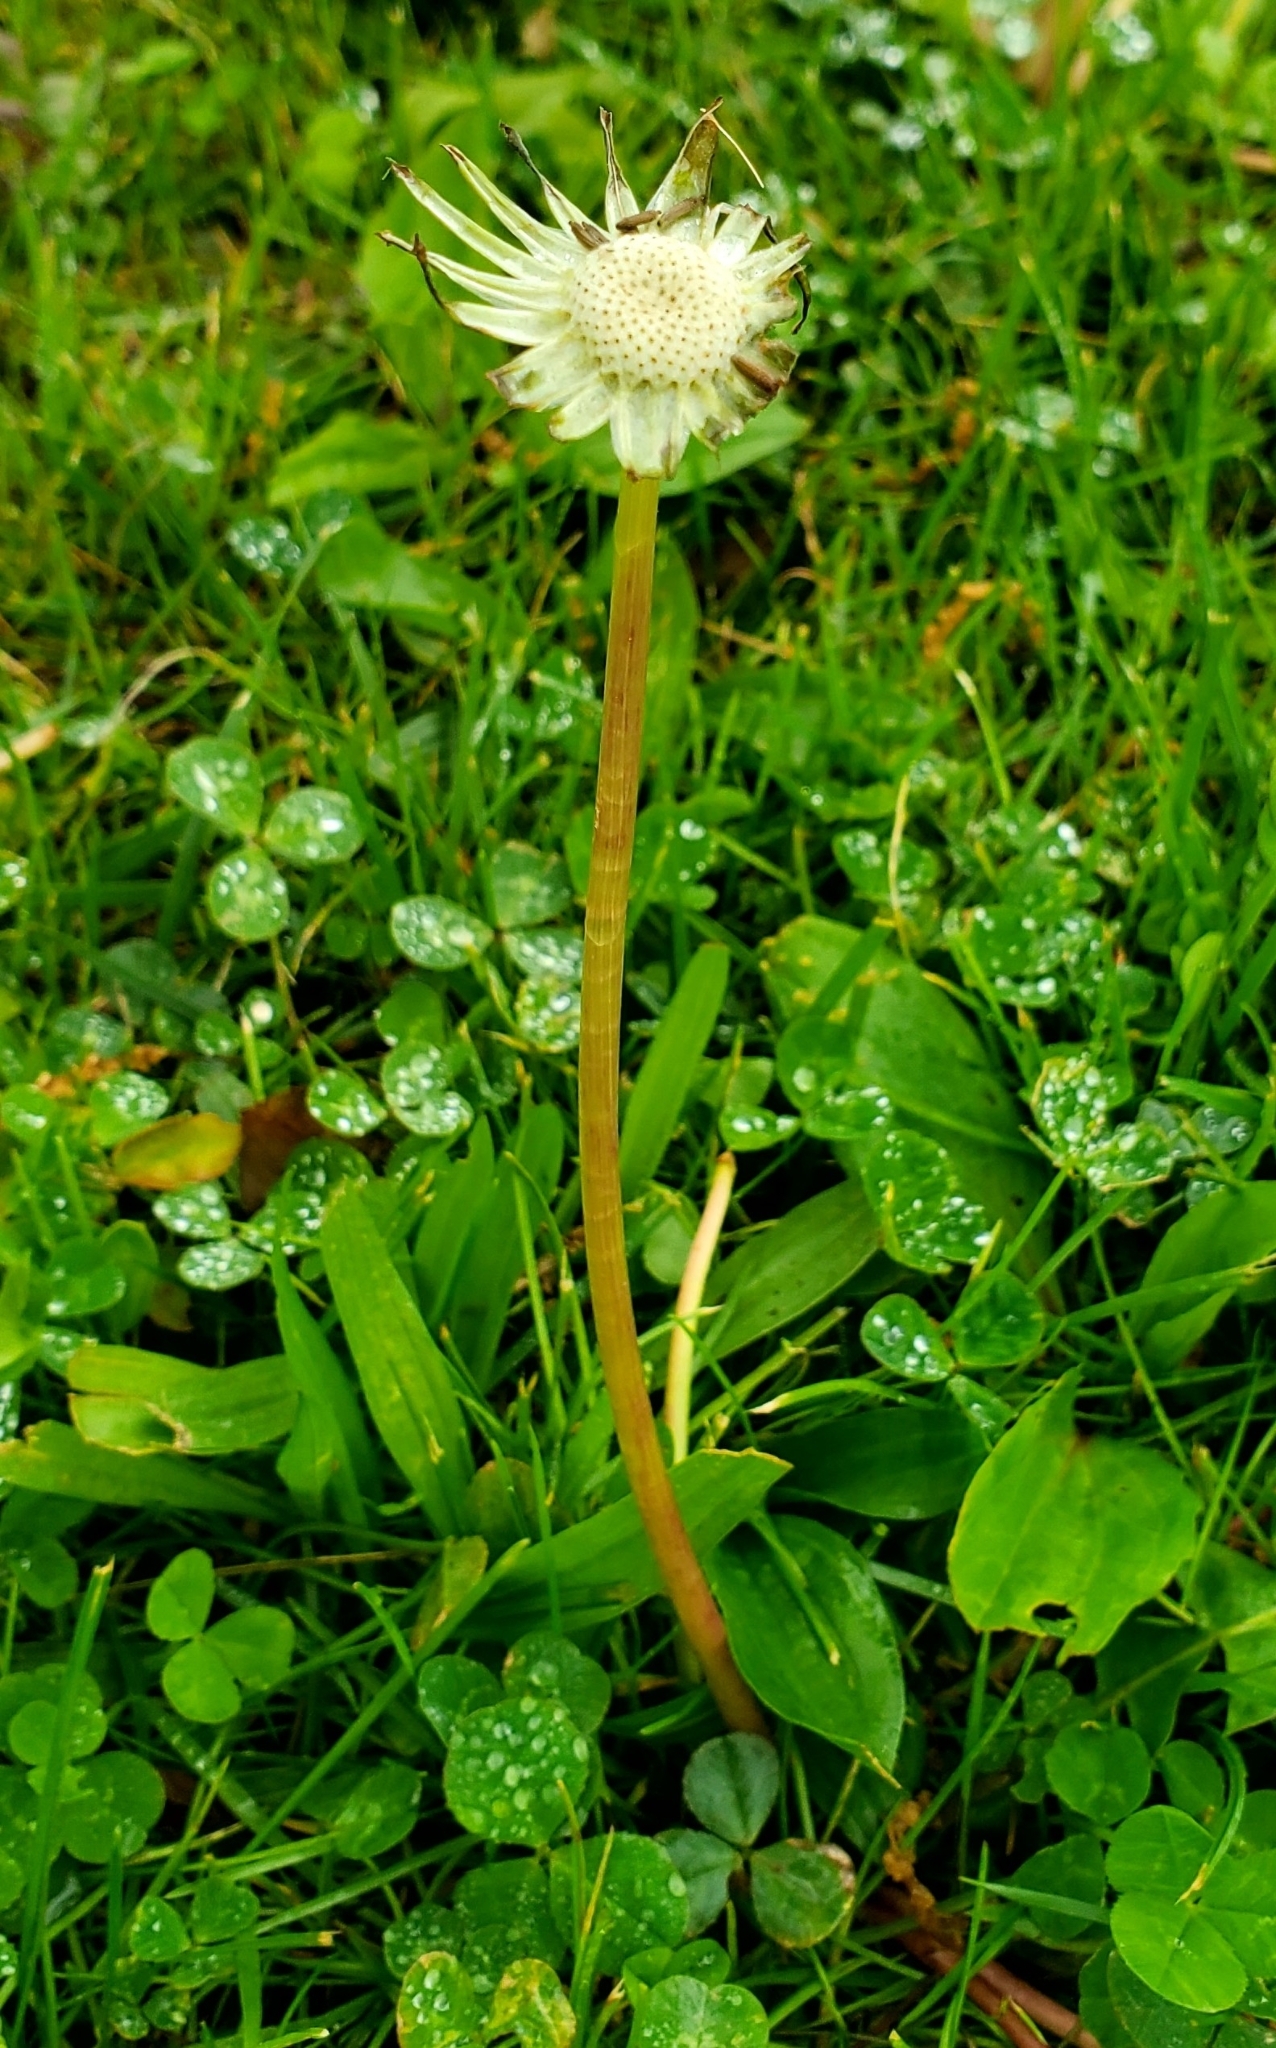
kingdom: Plantae
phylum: Tracheophyta
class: Magnoliopsida
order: Asterales
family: Asteraceae
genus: Taraxacum
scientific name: Taraxacum officinale
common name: Common dandelion
